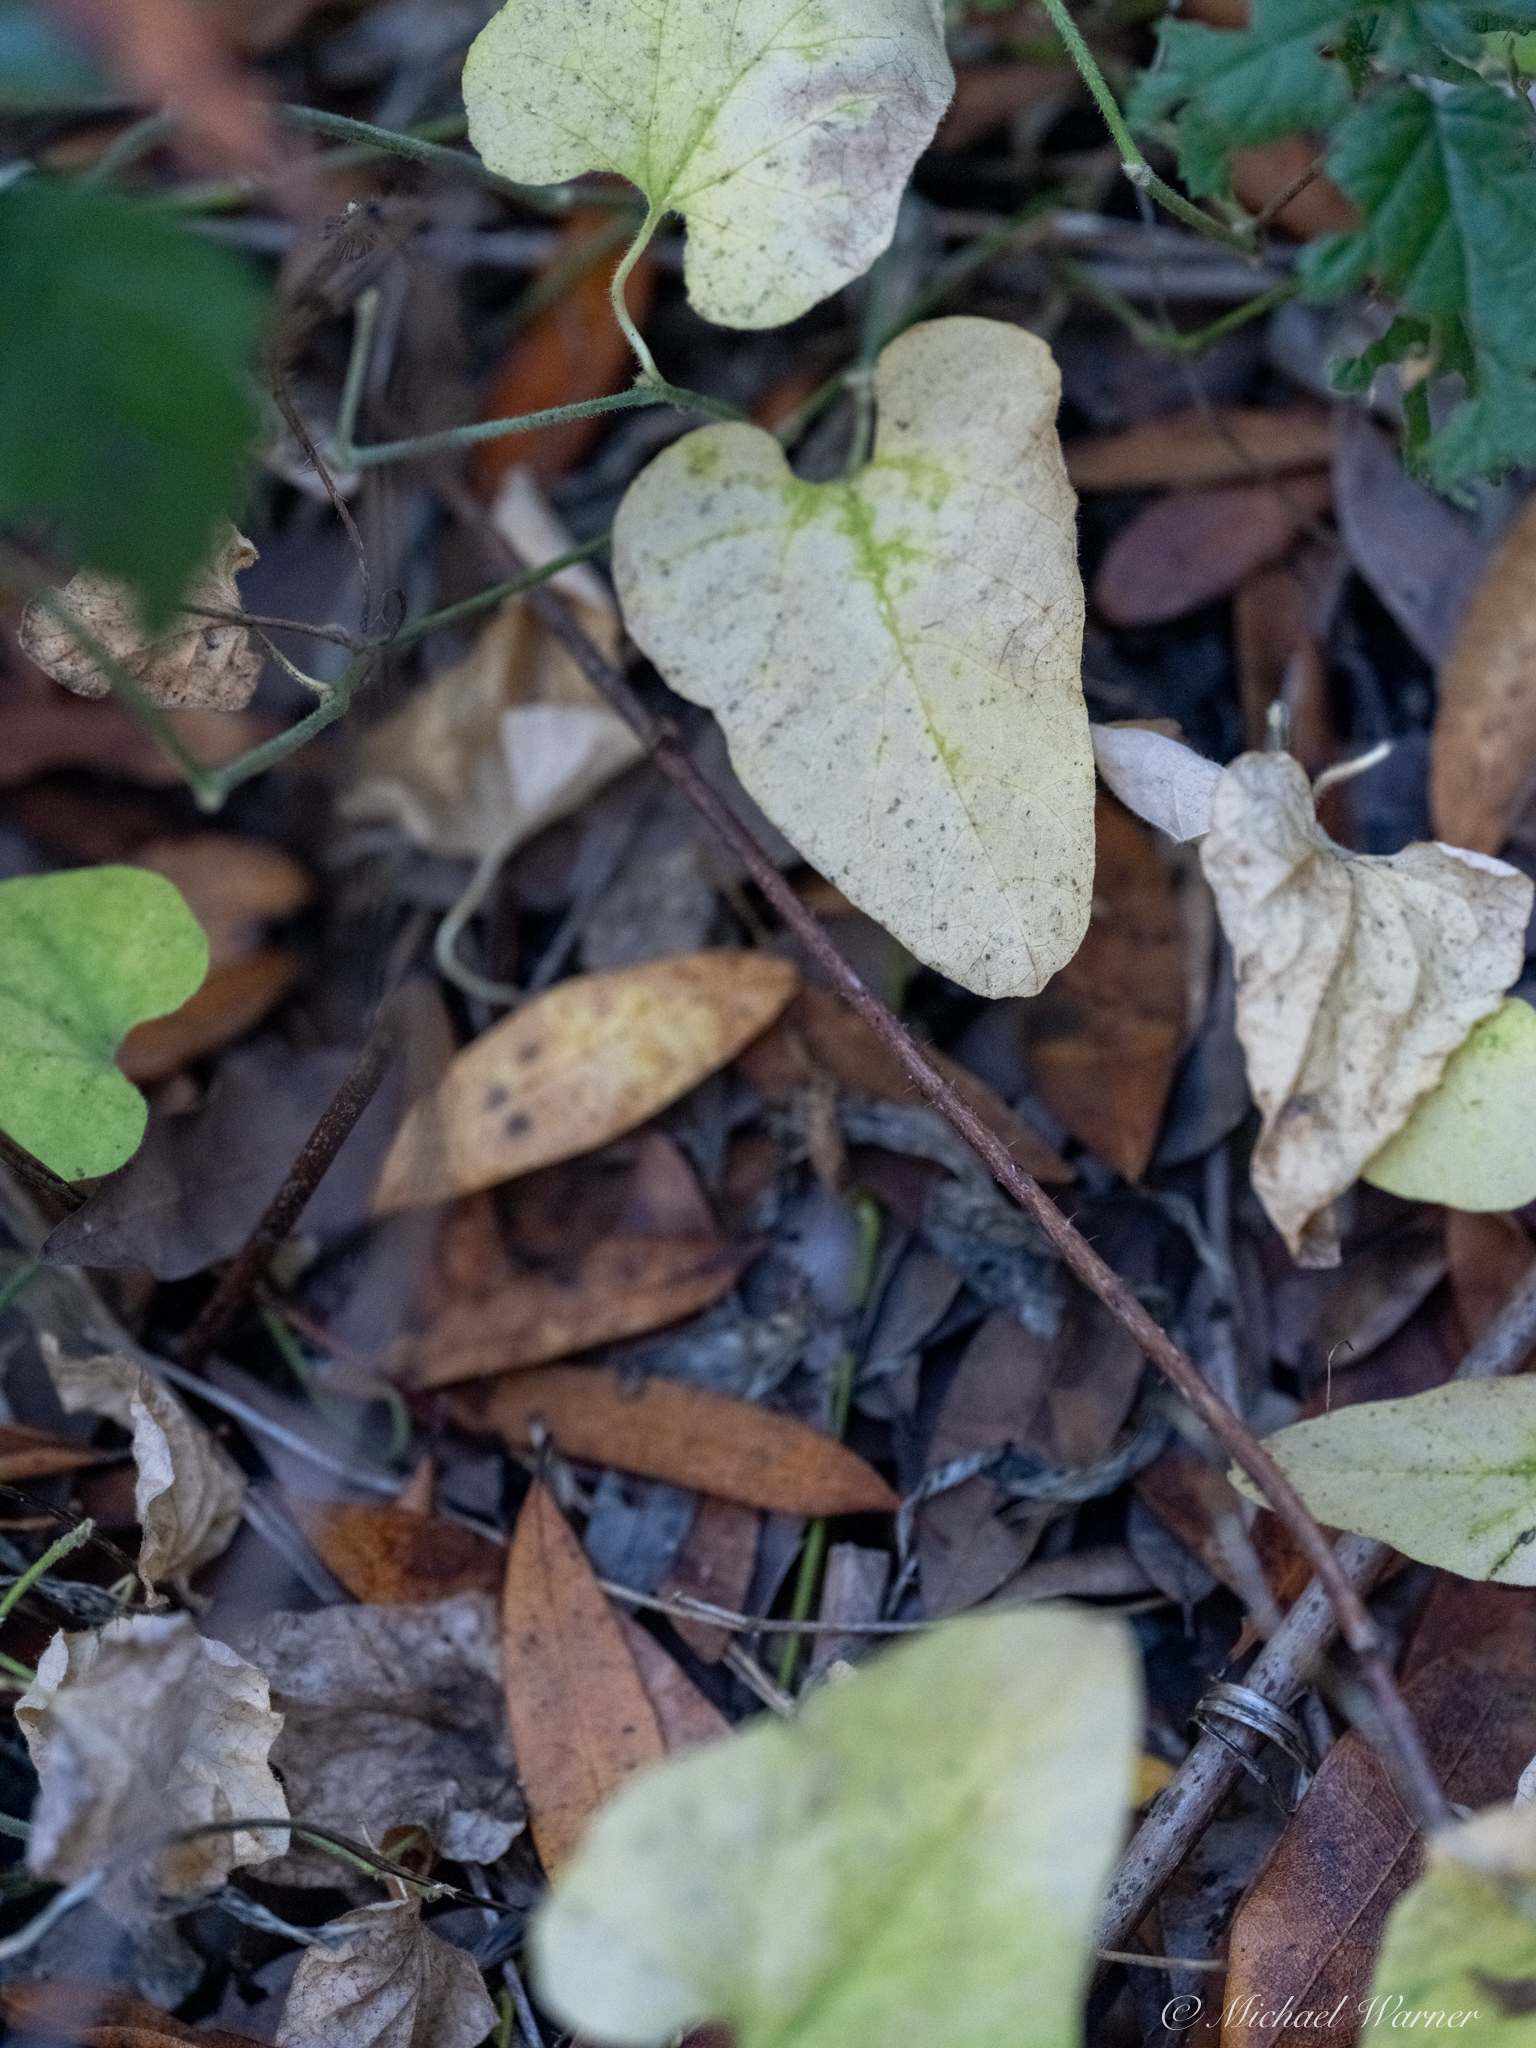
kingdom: Plantae
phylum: Tracheophyta
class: Magnoliopsida
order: Piperales
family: Aristolochiaceae
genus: Isotrema
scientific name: Isotrema californicum
